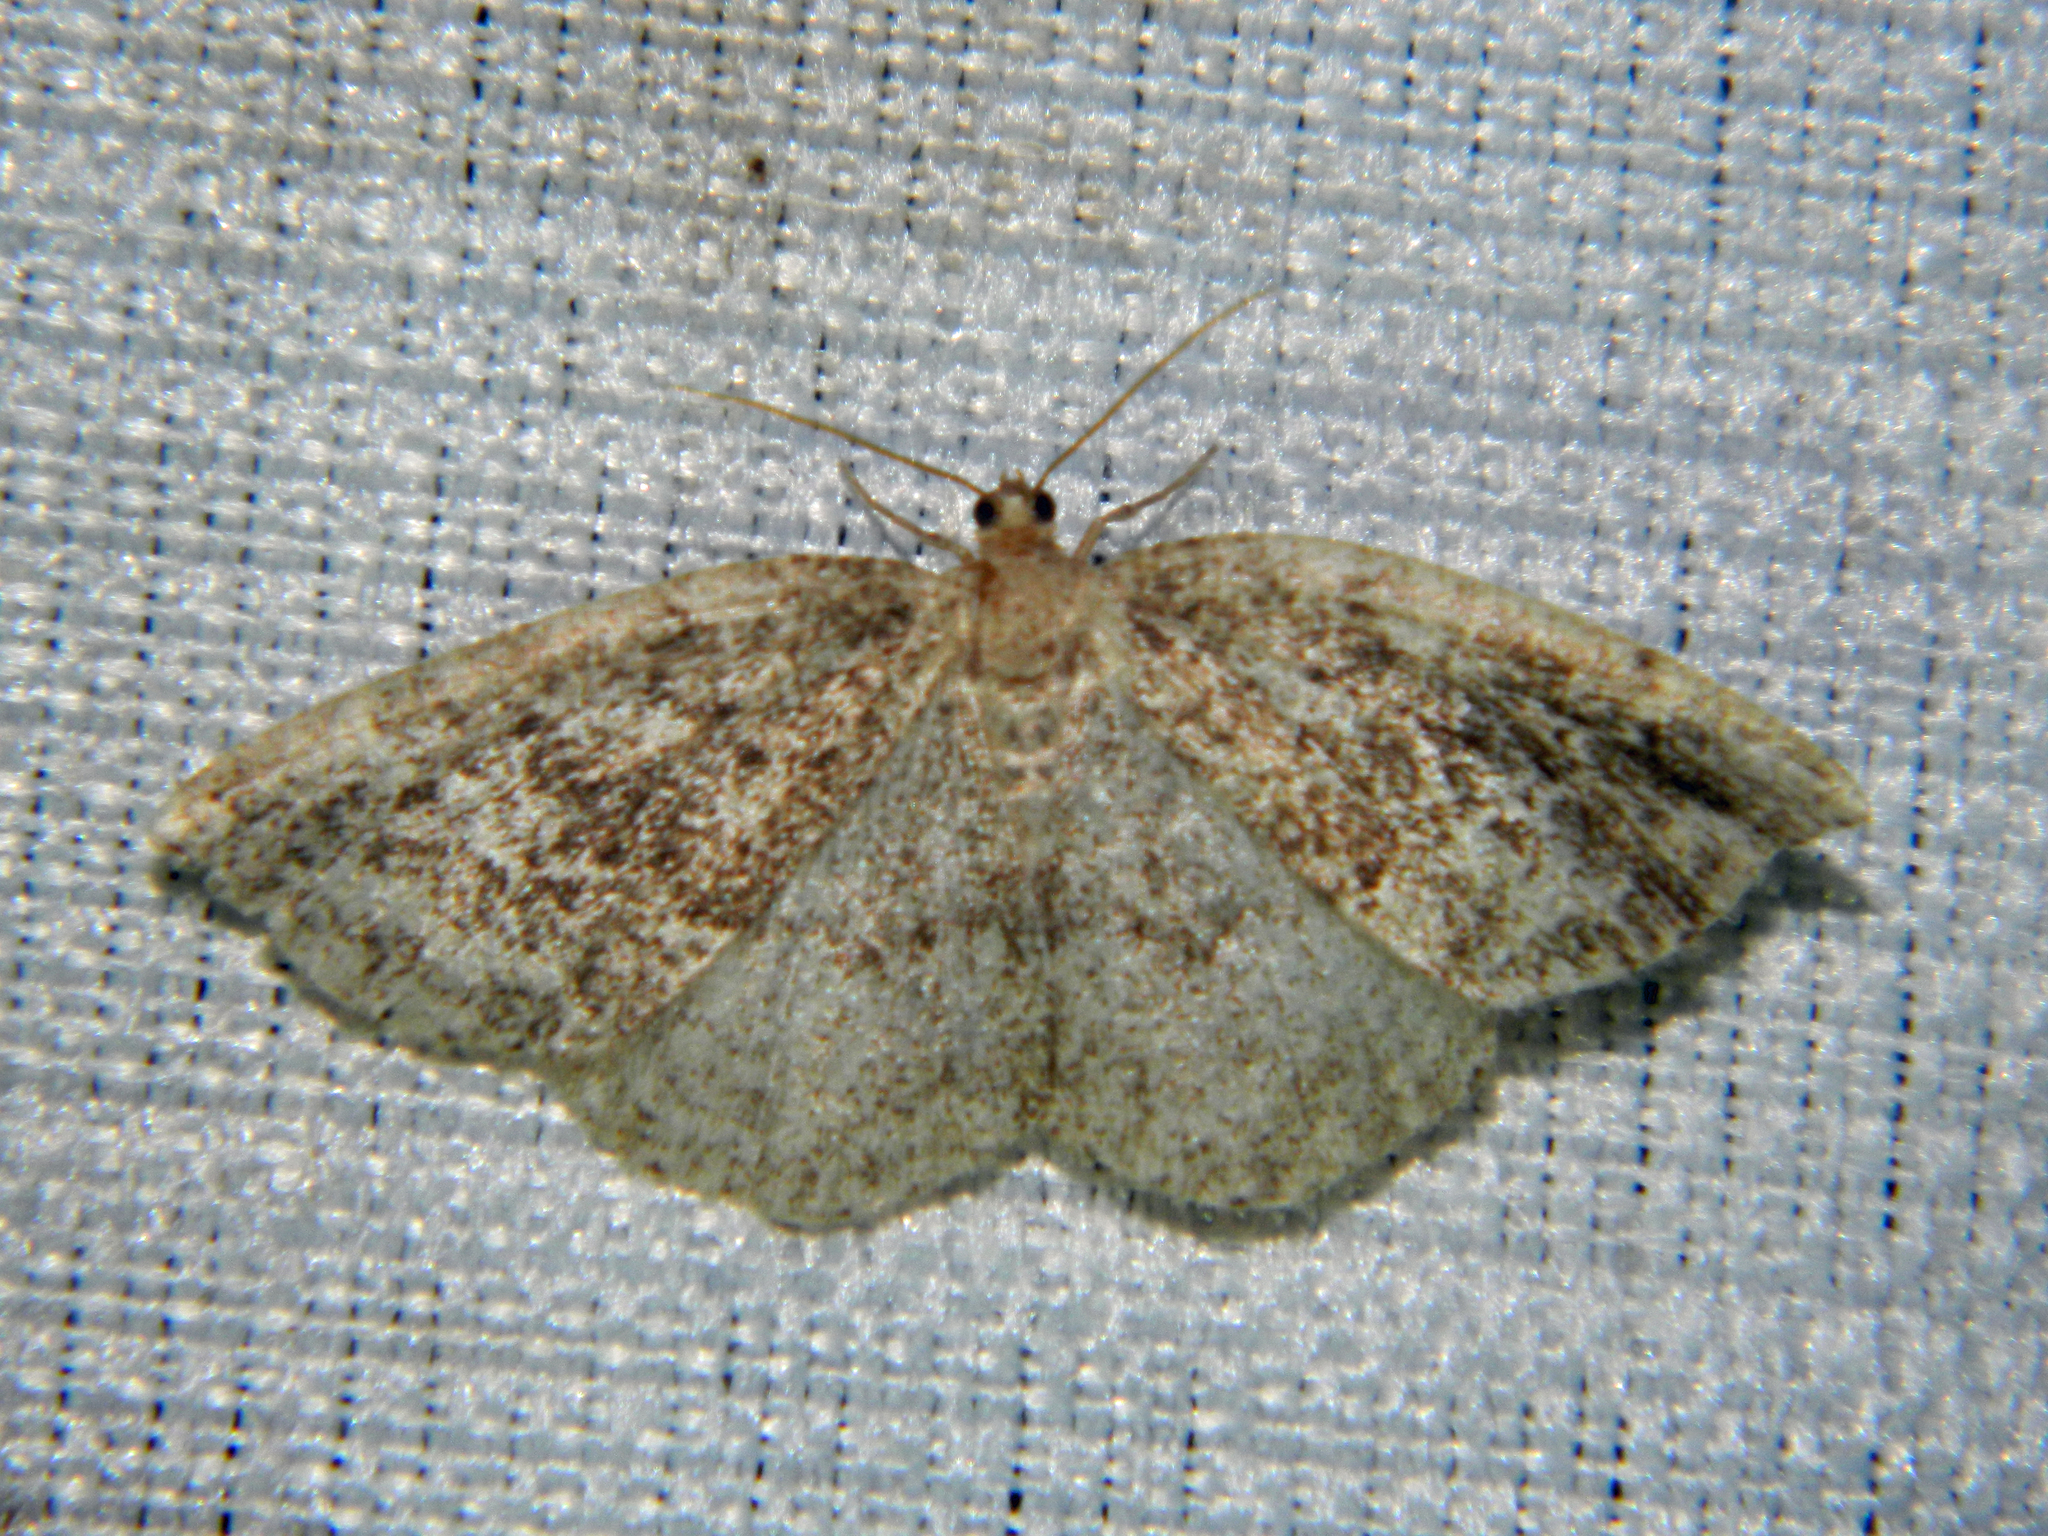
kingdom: Animalia
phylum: Arthropoda
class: Insecta
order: Lepidoptera
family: Geometridae
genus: Homochlodes
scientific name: Homochlodes fritillaria
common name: Pale homochlodes
